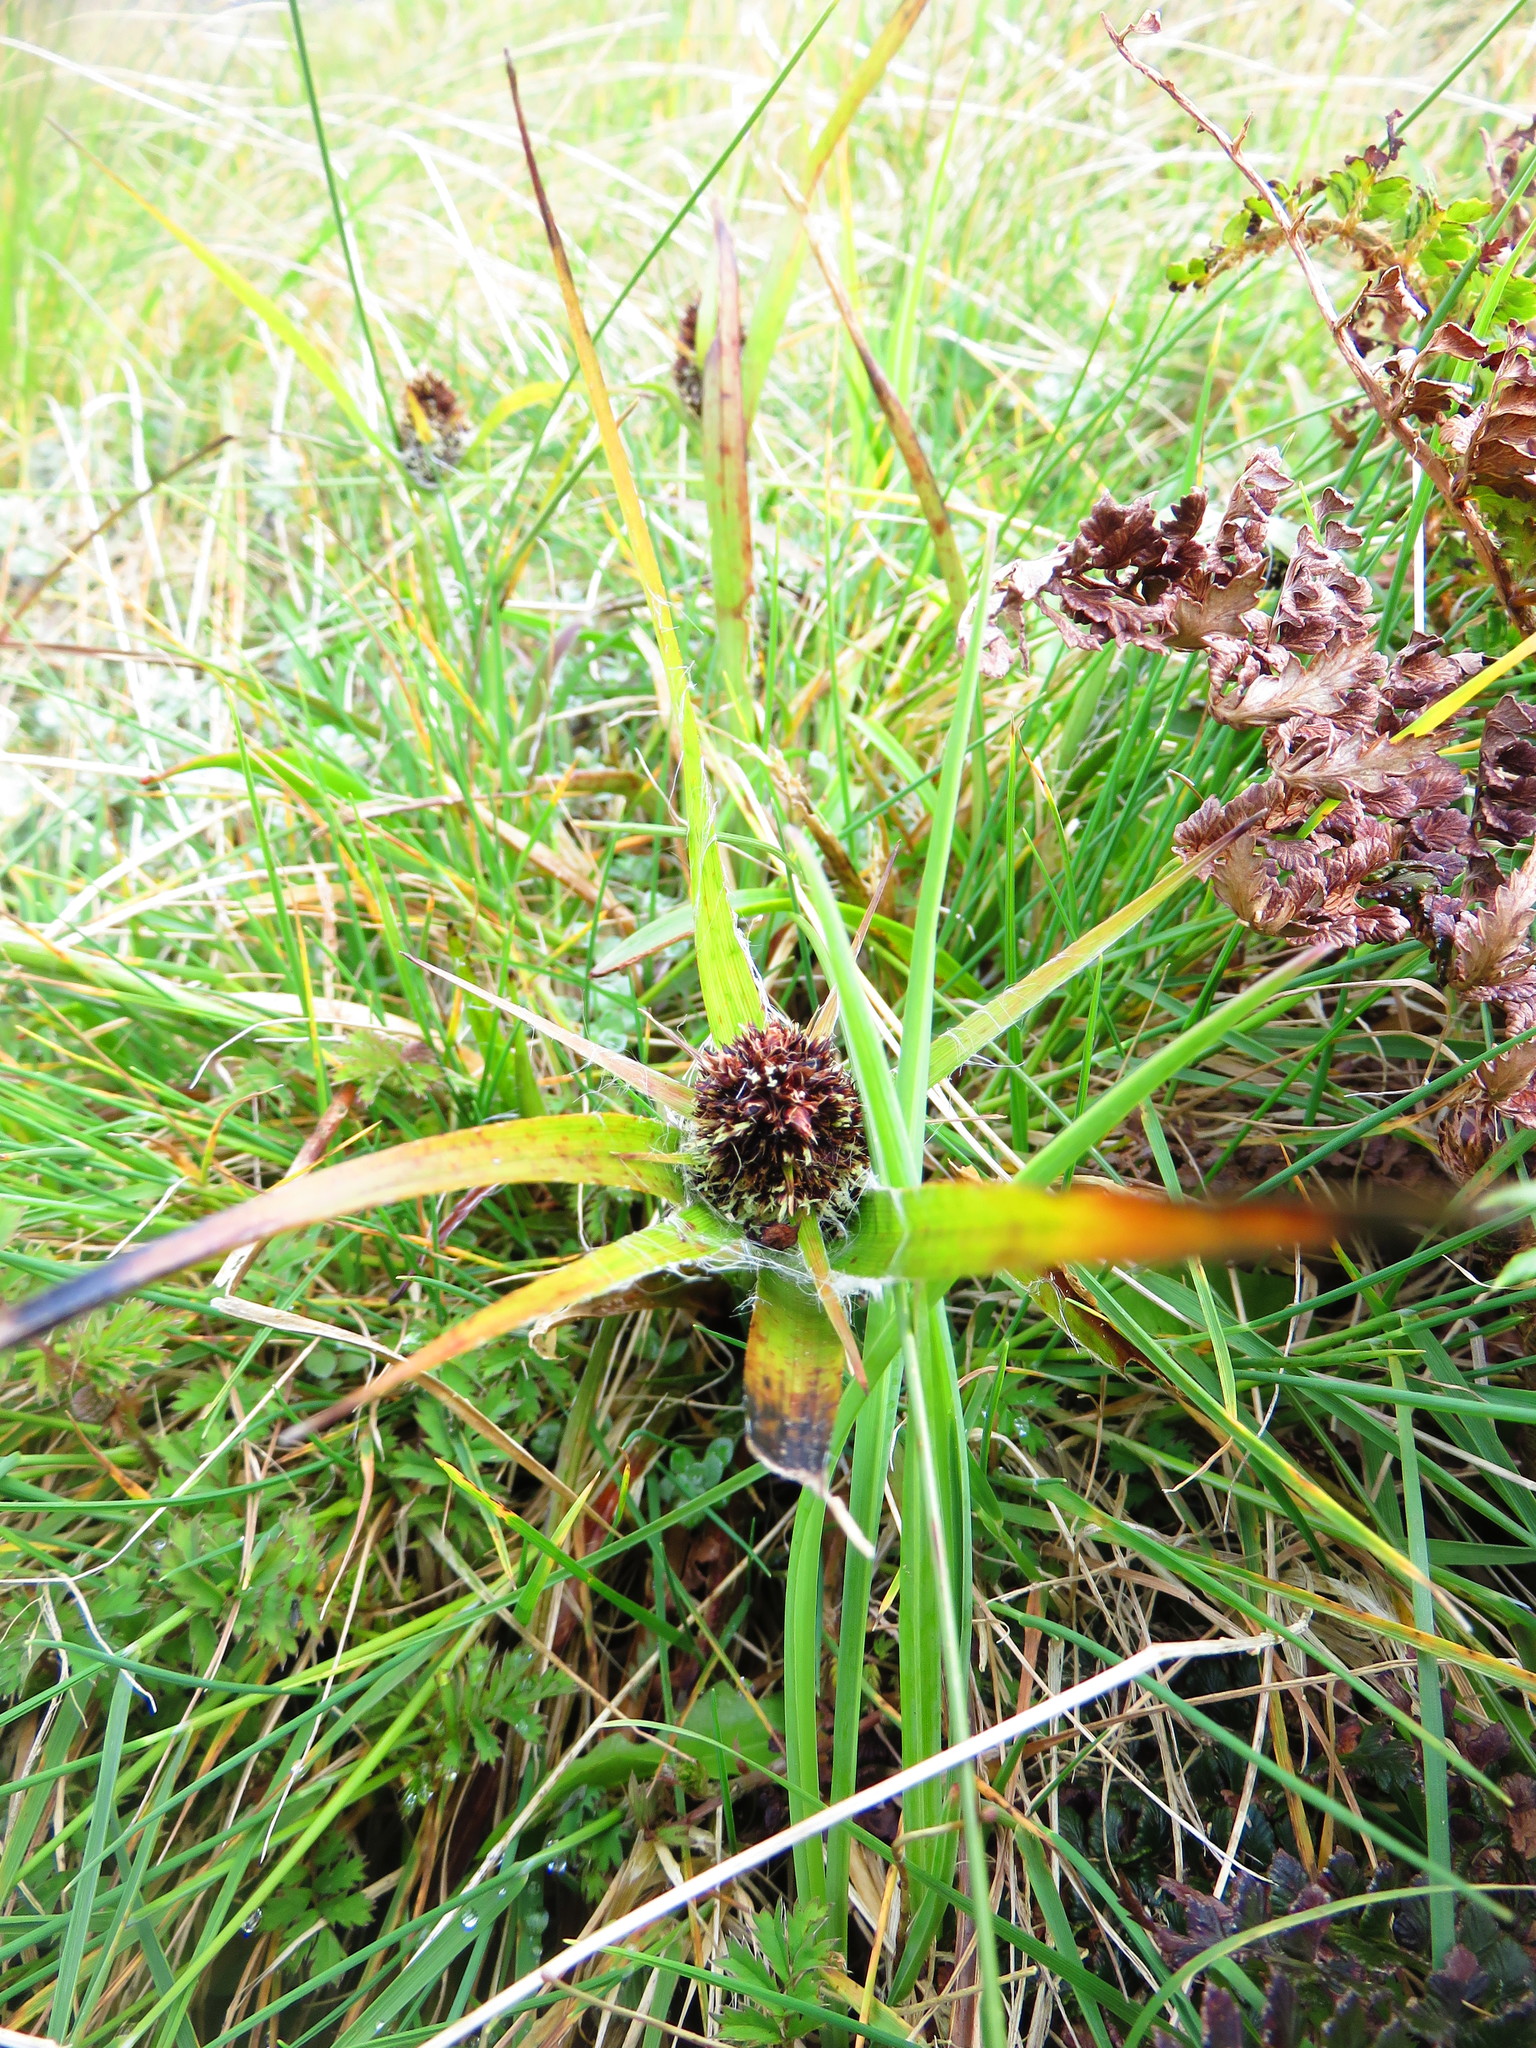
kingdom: Plantae
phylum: Tracheophyta
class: Liliopsida
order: Poales
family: Juncaceae
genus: Luzula
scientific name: Luzula crinita
